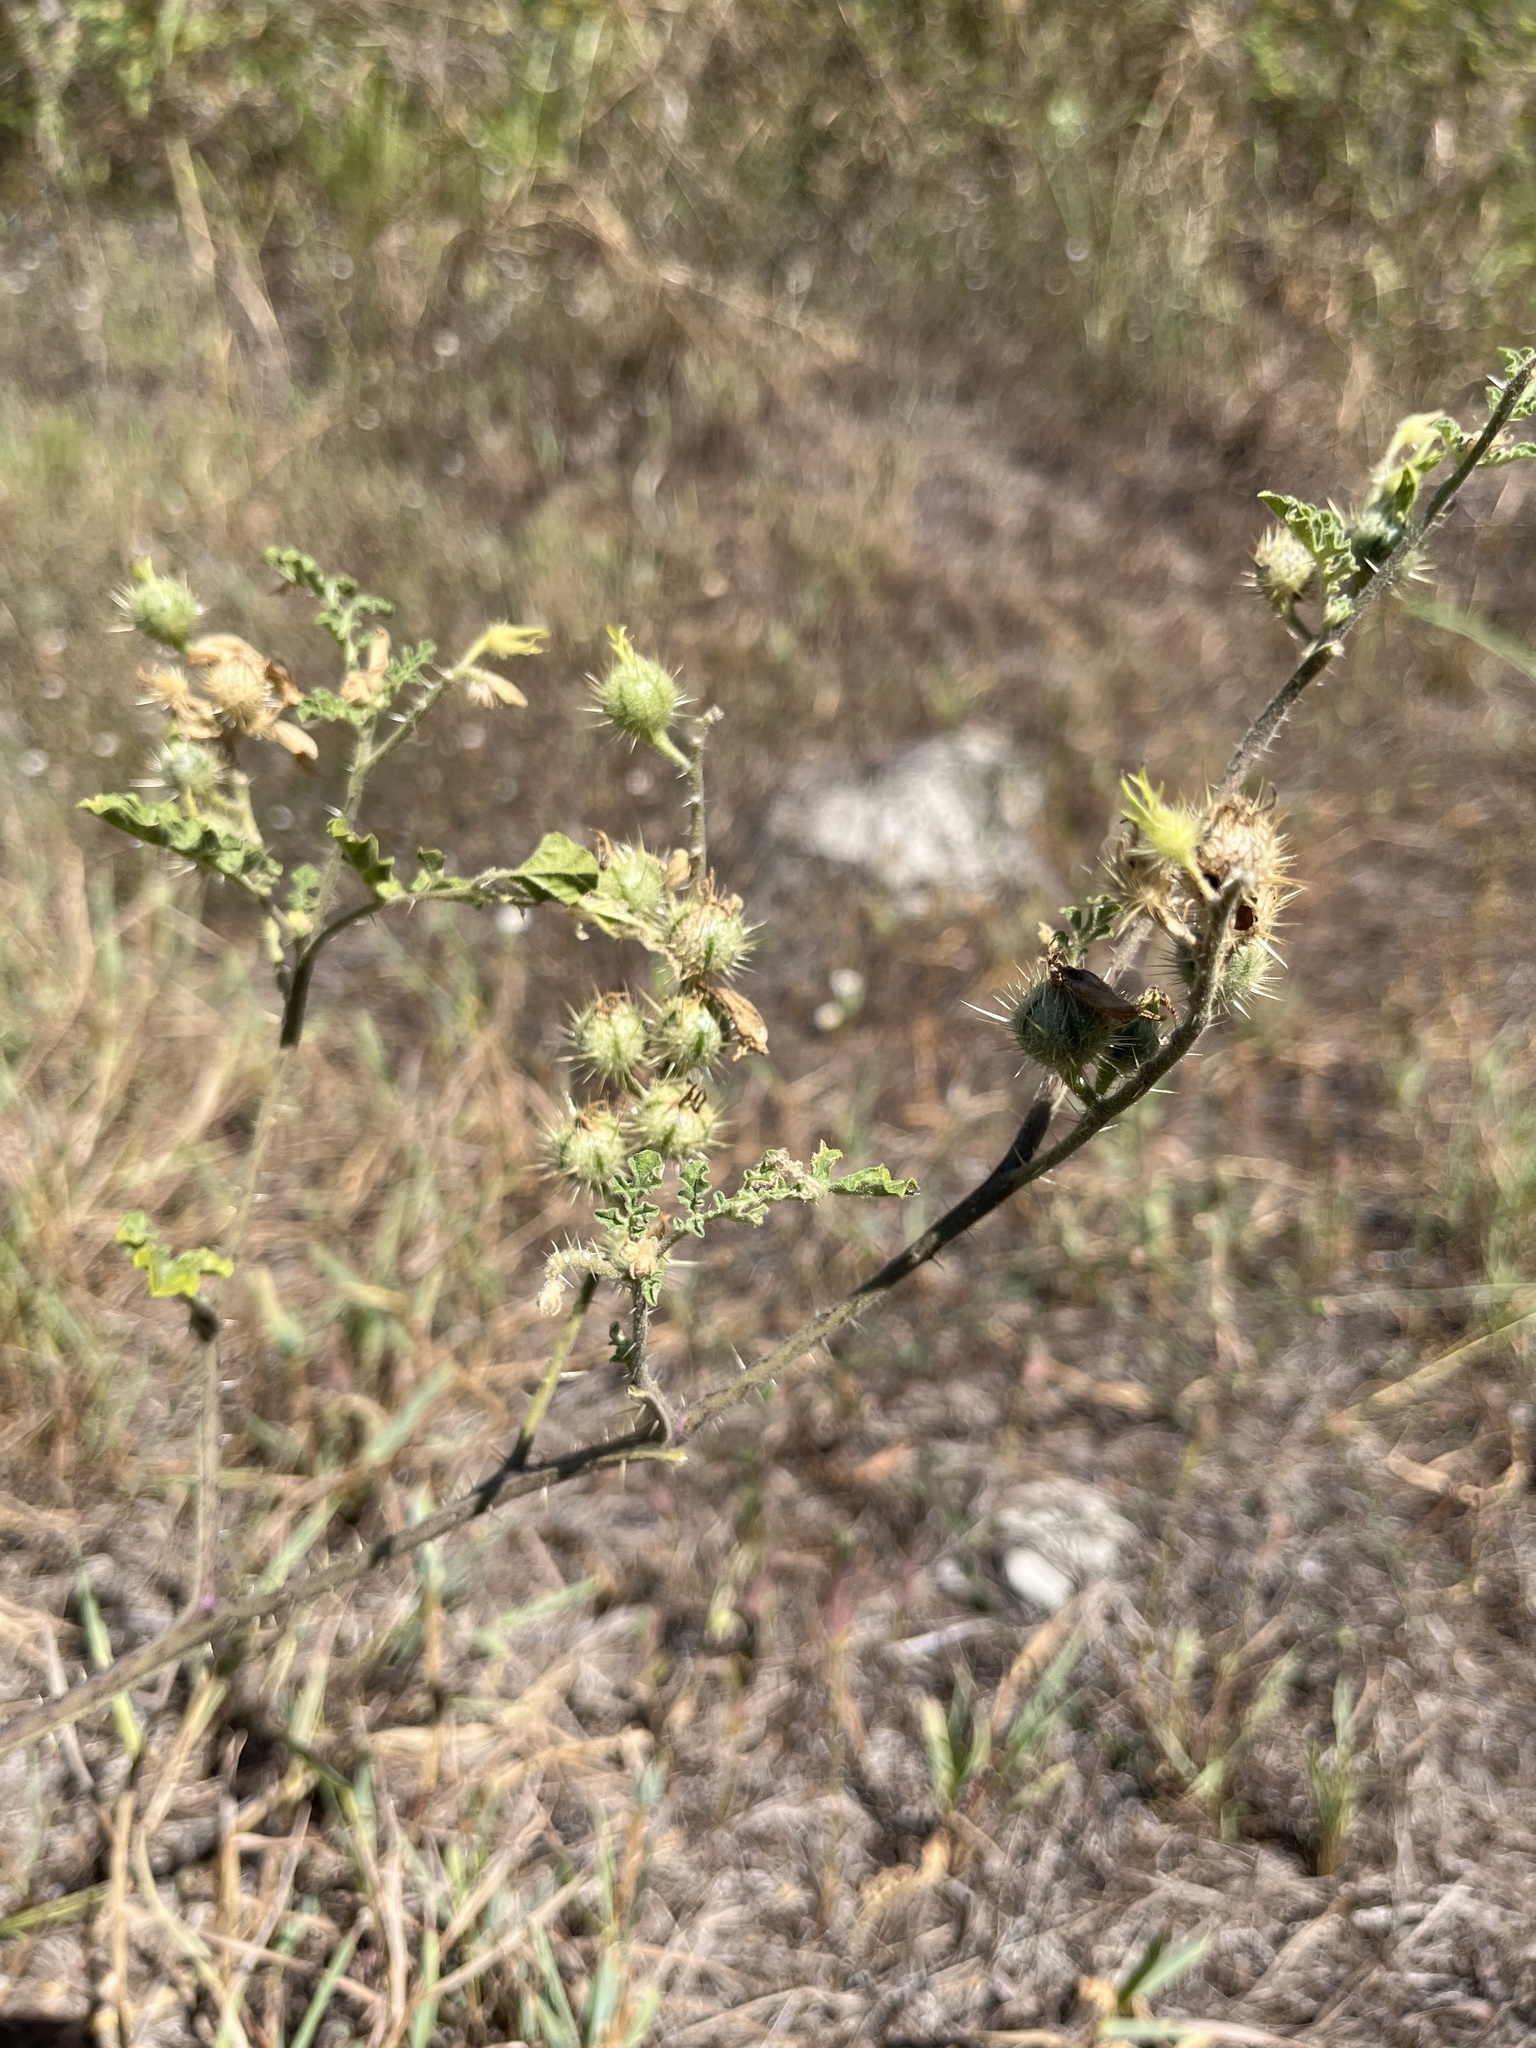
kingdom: Plantae
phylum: Tracheophyta
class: Magnoliopsida
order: Solanales
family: Solanaceae
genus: Solanum
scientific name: Solanum angustifolium
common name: Buffalobur nightshade
